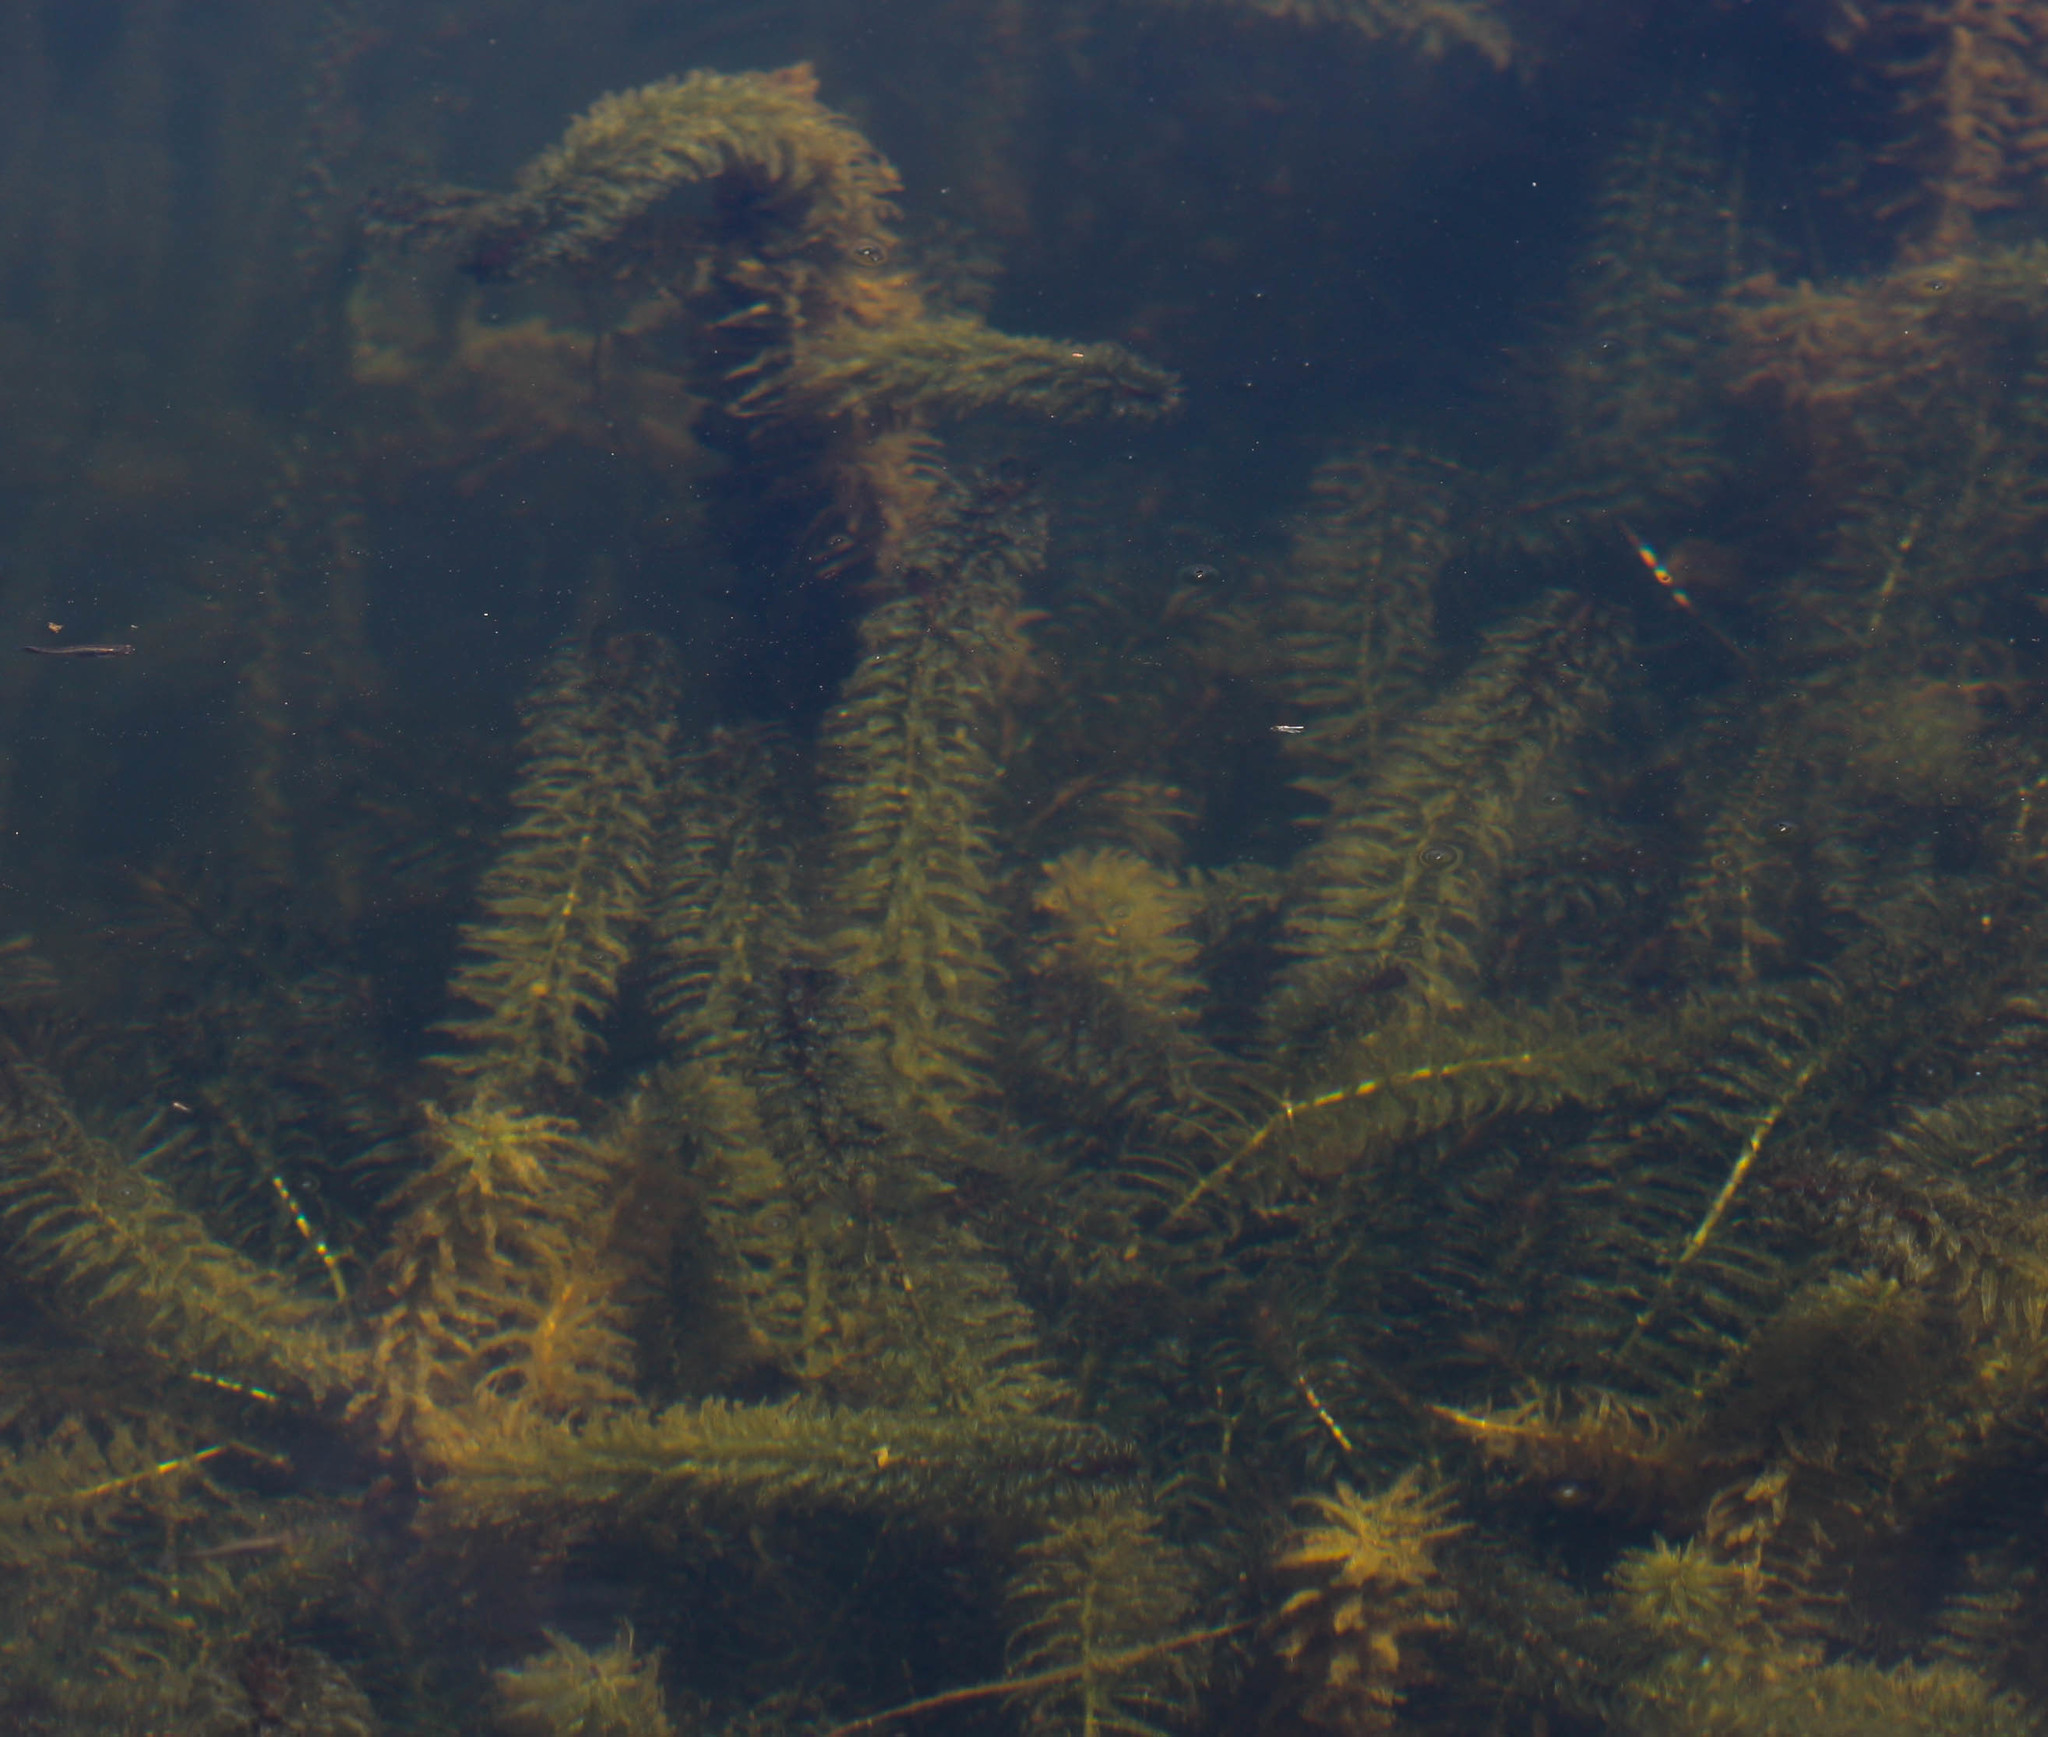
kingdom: Plantae
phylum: Tracheophyta
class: Liliopsida
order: Alismatales
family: Hydrocharitaceae
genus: Elodea
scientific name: Elodea densa
